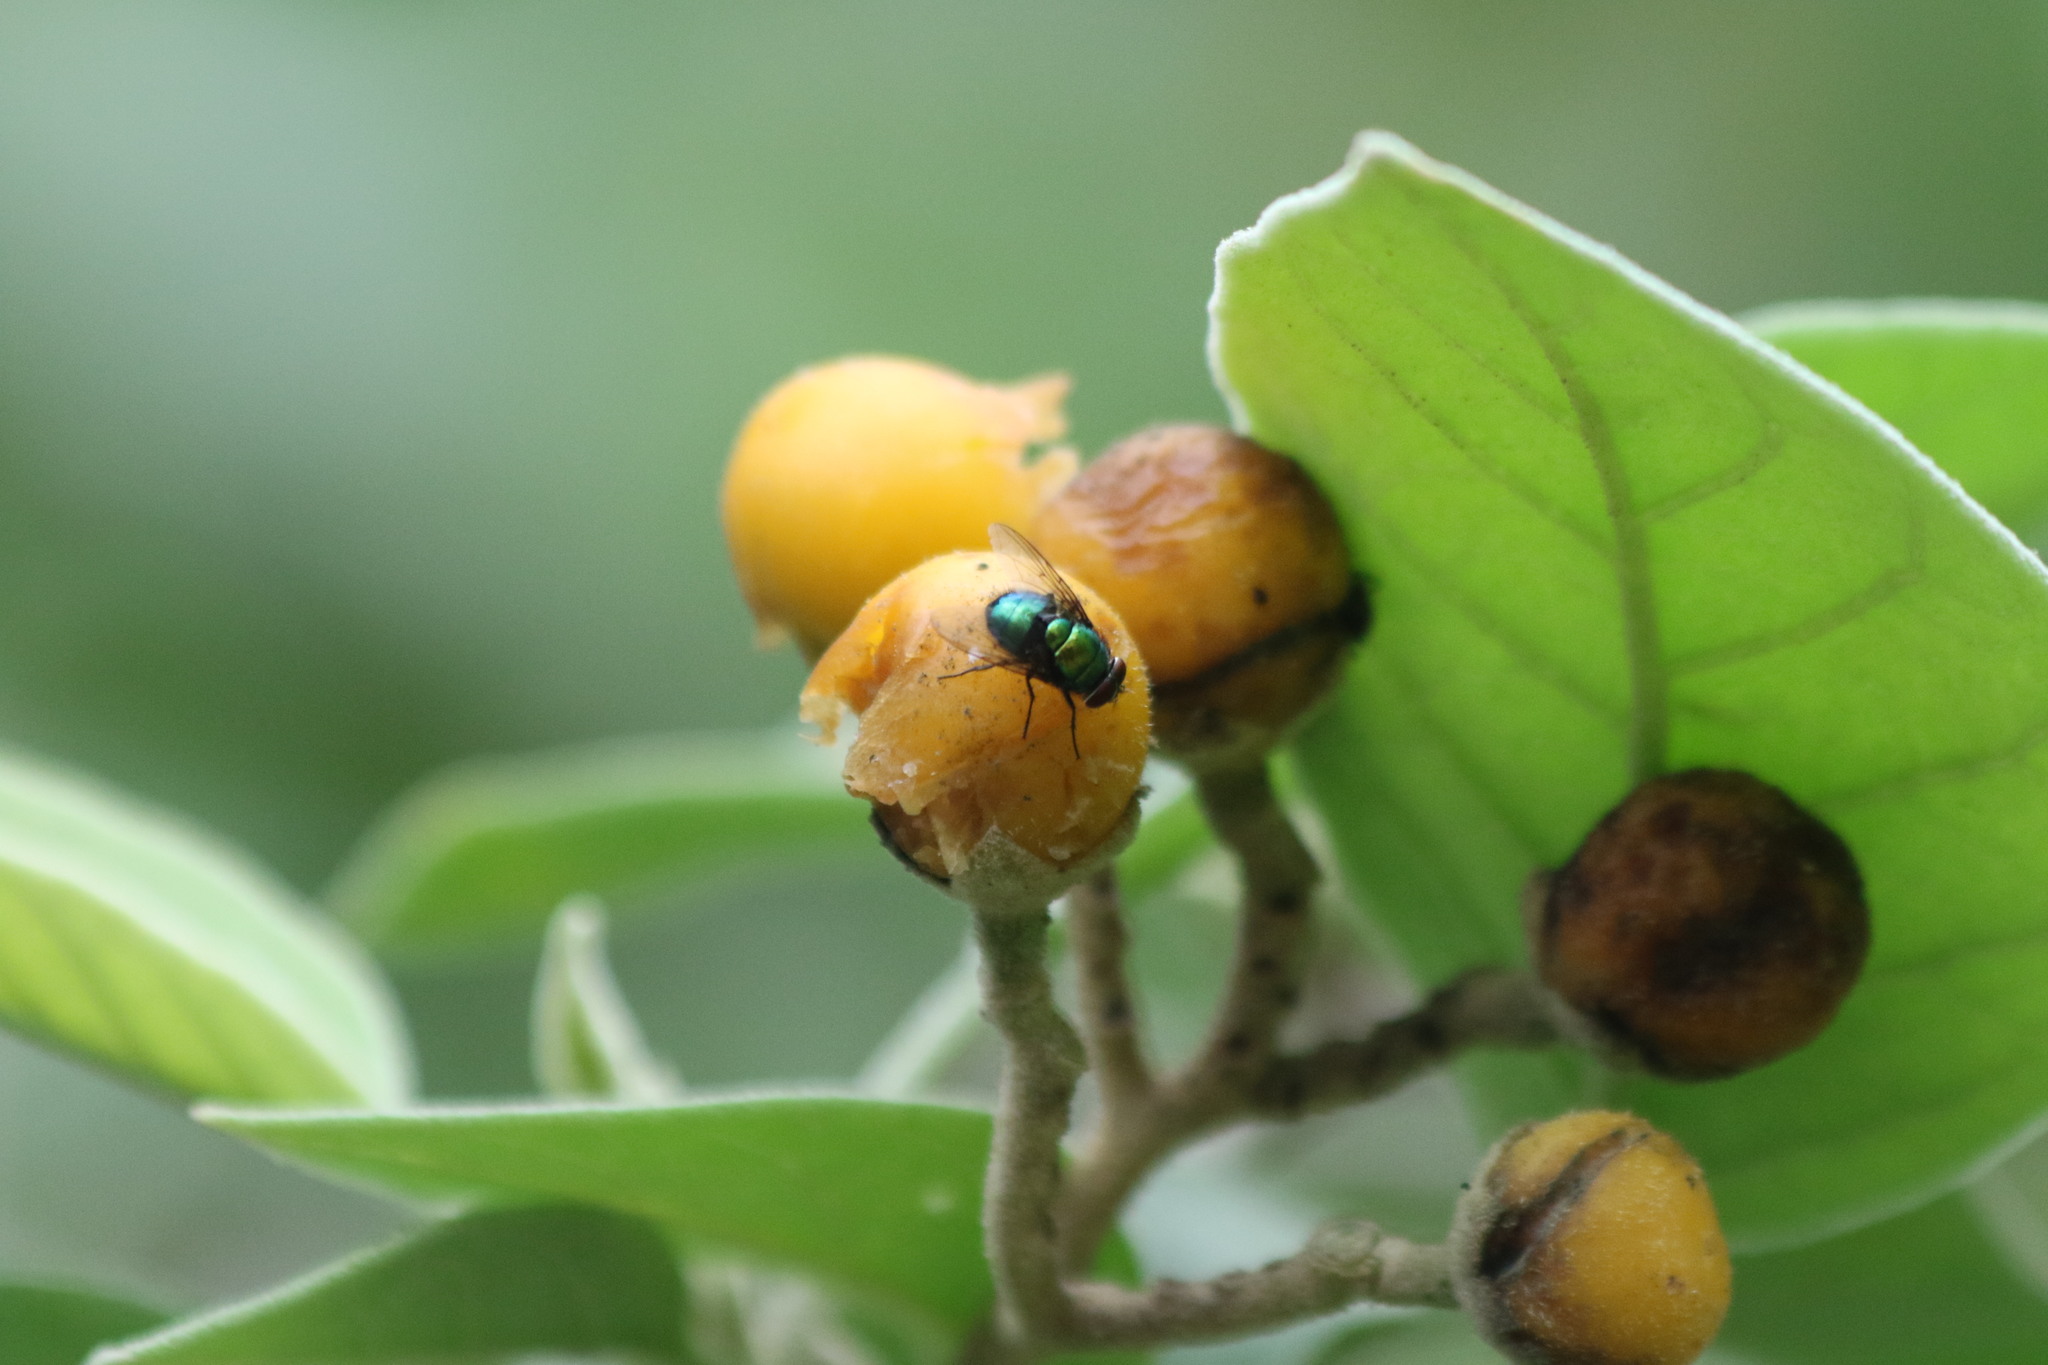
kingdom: Plantae
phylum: Tracheophyta
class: Magnoliopsida
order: Solanales
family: Solanaceae
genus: Solanum
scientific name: Solanum erianthum
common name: Tobacco-tree
